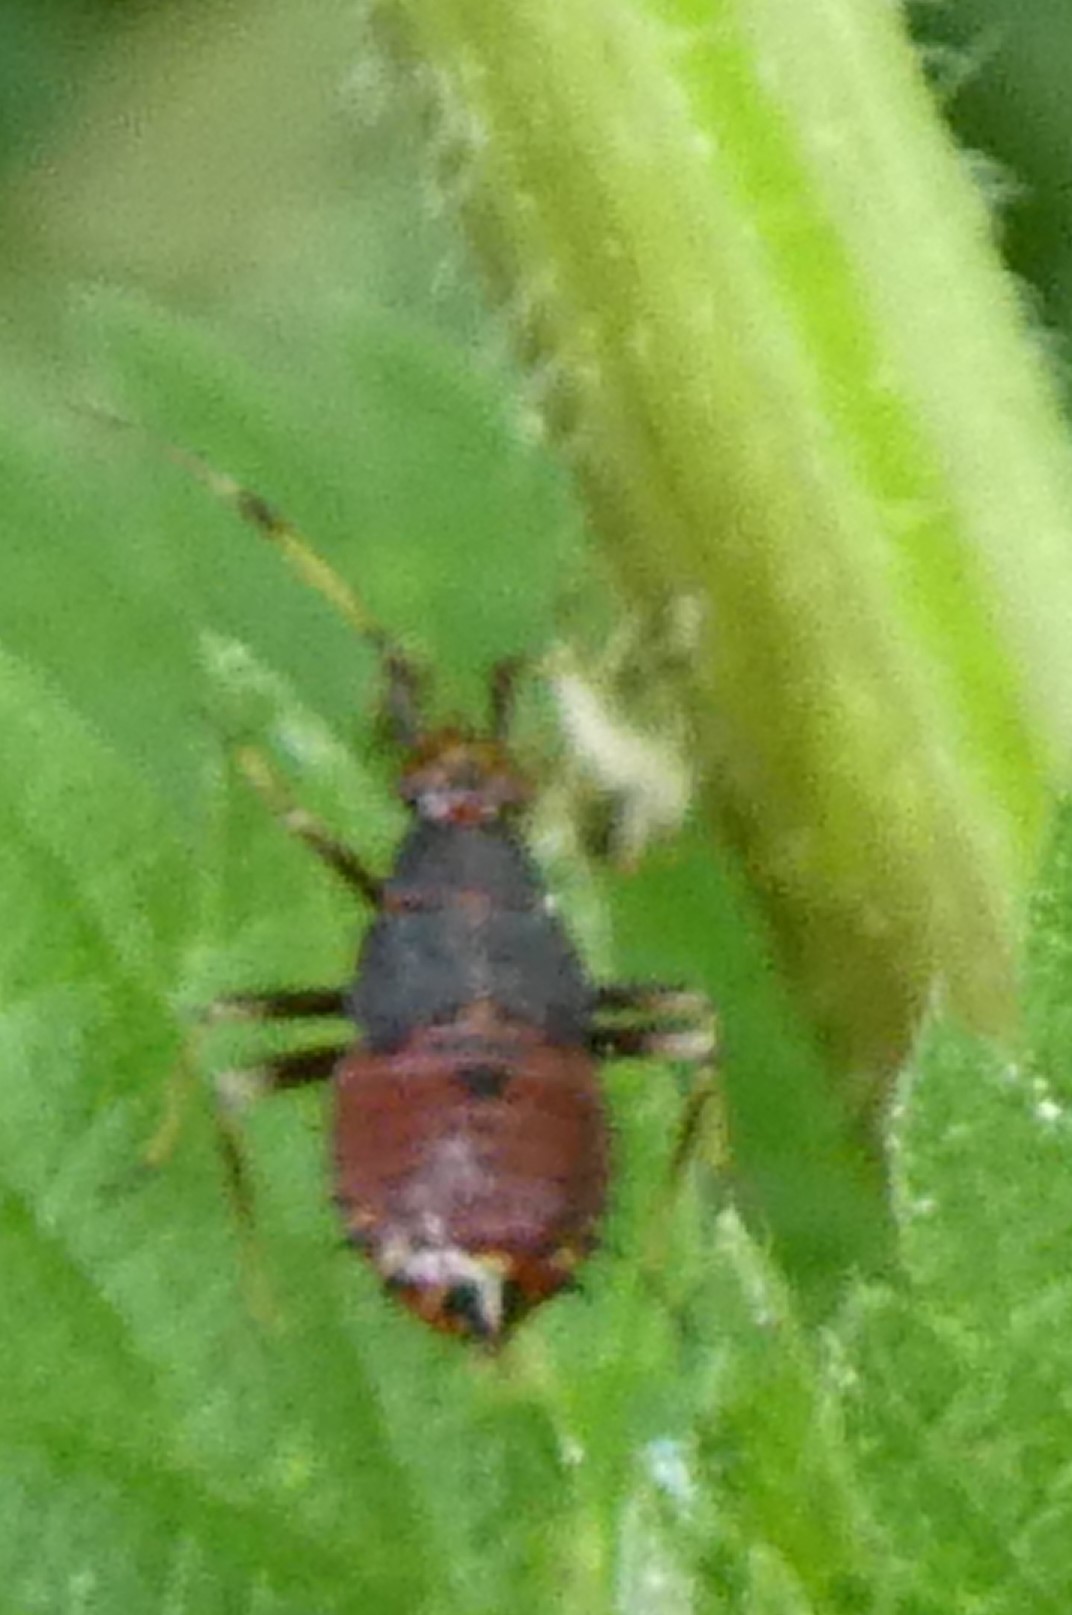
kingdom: Animalia
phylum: Arthropoda
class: Insecta
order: Hemiptera
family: Miridae
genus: Deraeocoris
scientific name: Deraeocoris ruber
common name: Plant bug
